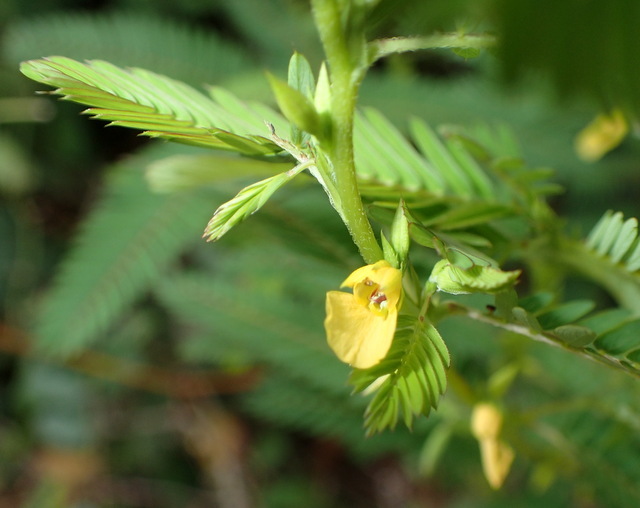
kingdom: Plantae
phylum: Tracheophyta
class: Magnoliopsida
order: Fabales
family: Fabaceae
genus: Chamaecrista
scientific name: Chamaecrista nictitans
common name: Sensitive cassia
